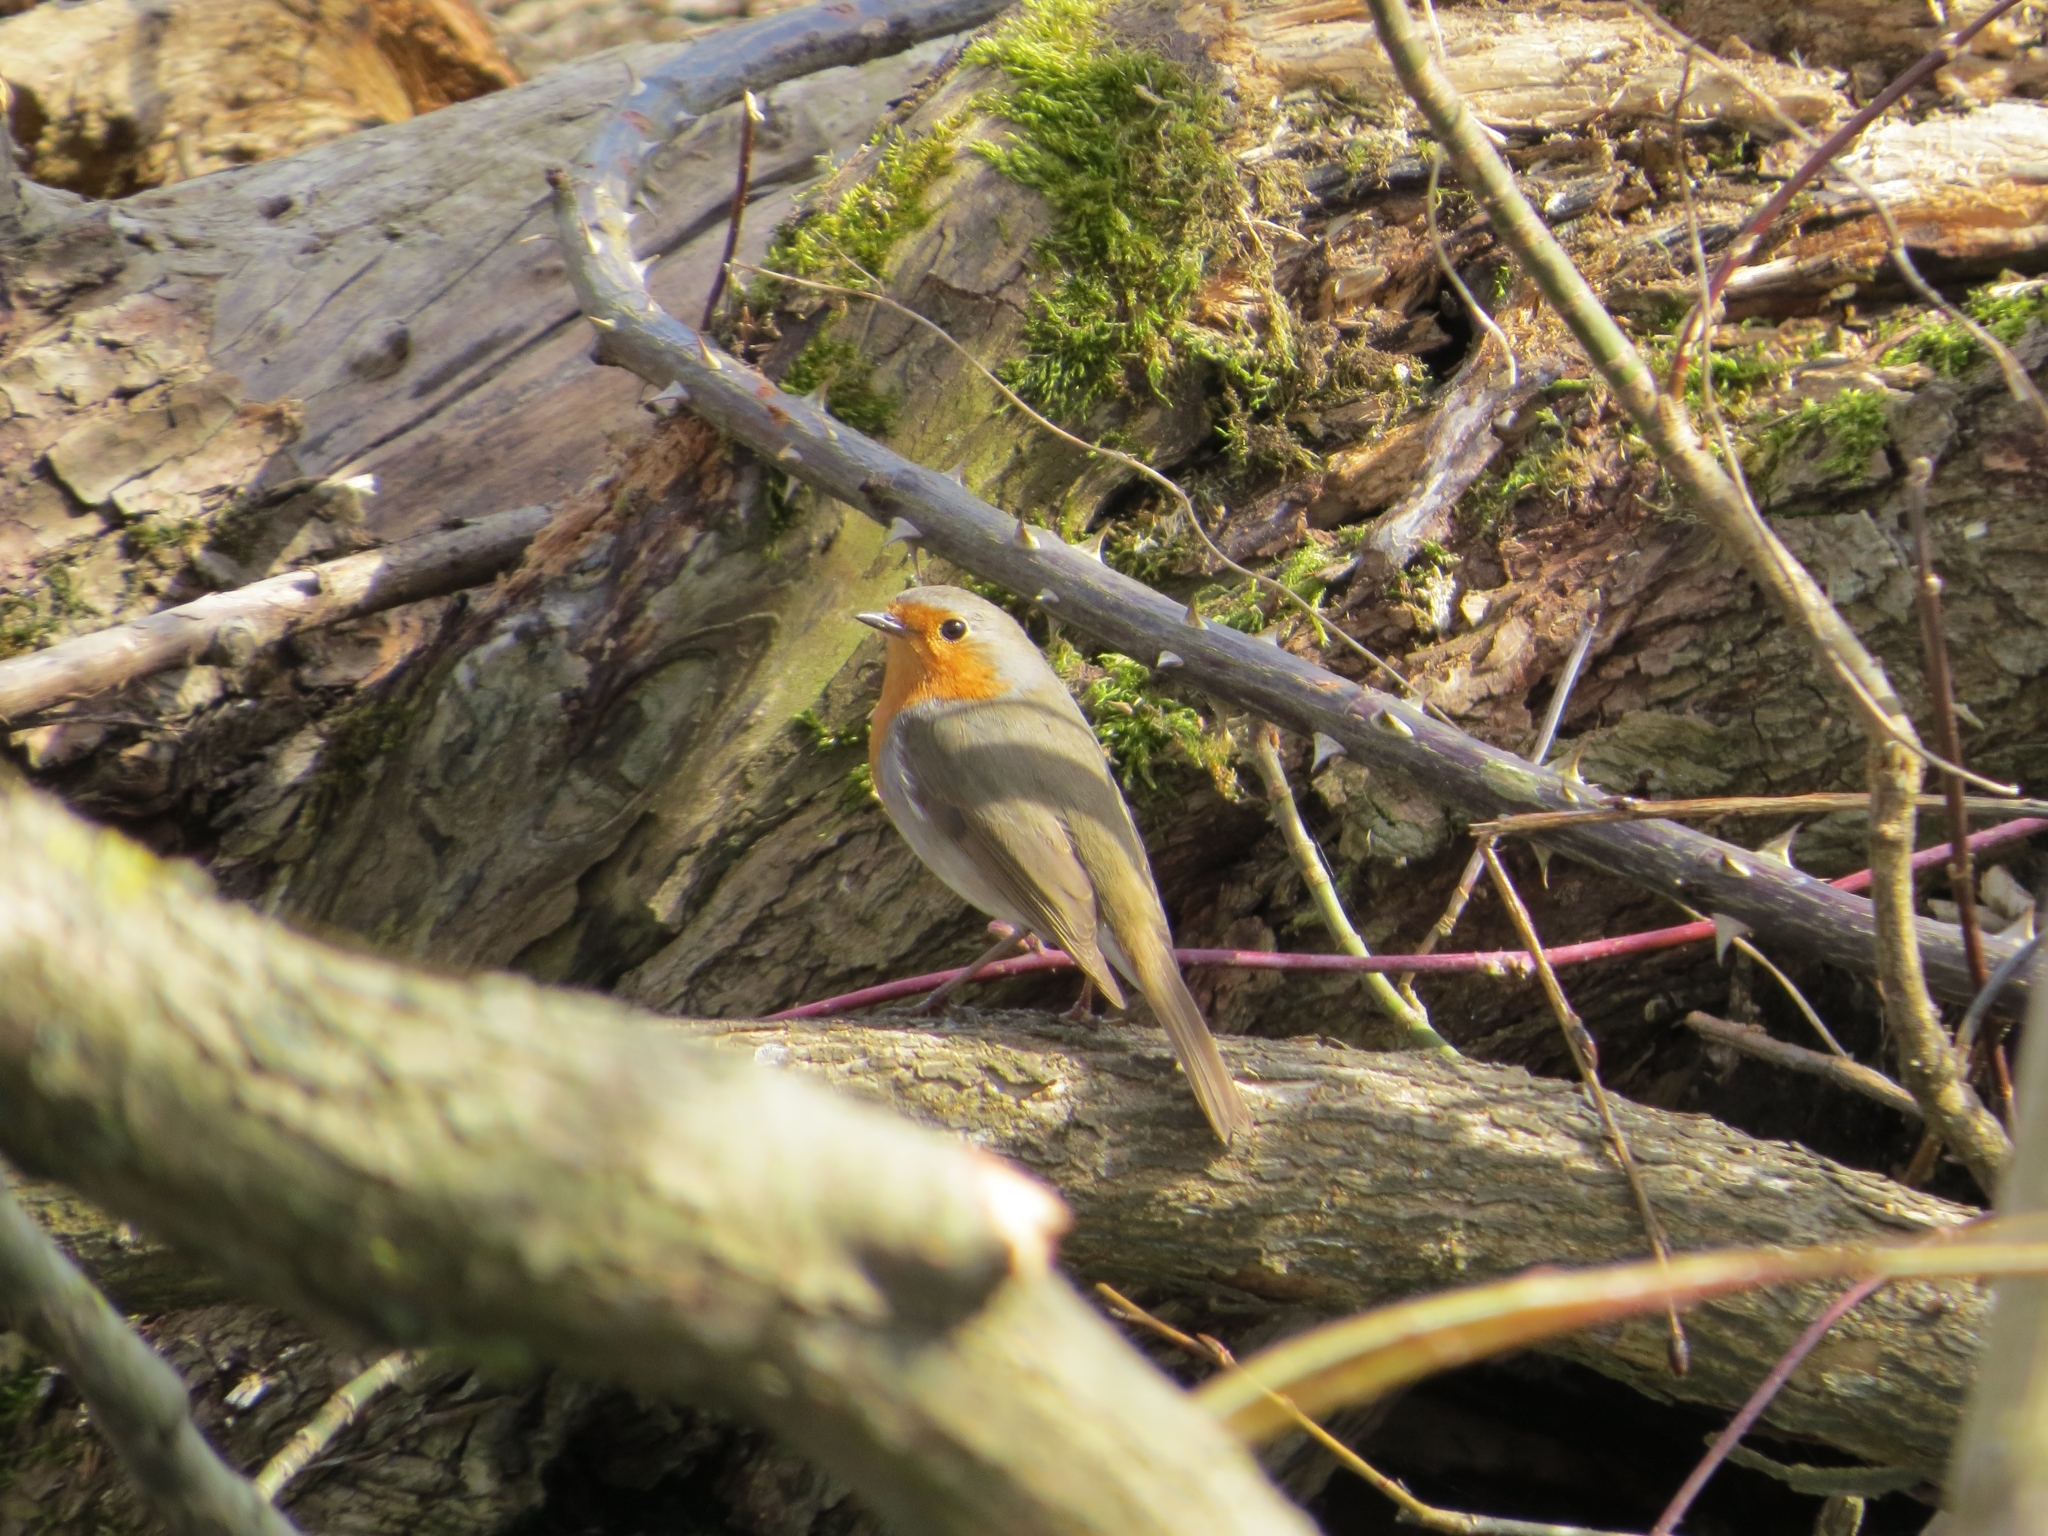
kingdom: Animalia
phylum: Chordata
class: Aves
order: Passeriformes
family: Muscicapidae
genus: Erithacus
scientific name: Erithacus rubecula
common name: European robin
